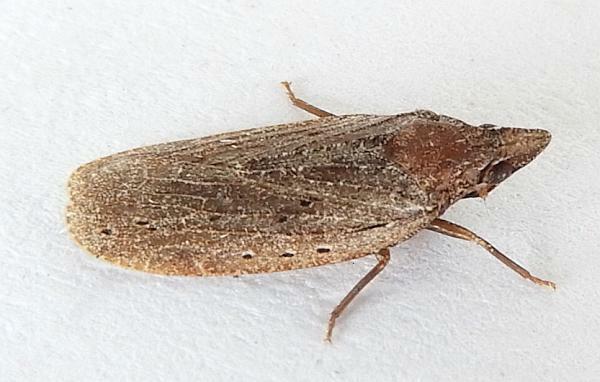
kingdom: Animalia
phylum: Arthropoda
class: Insecta
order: Hemiptera
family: Achilidae
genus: Cixidia
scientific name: Cixidia fusca
